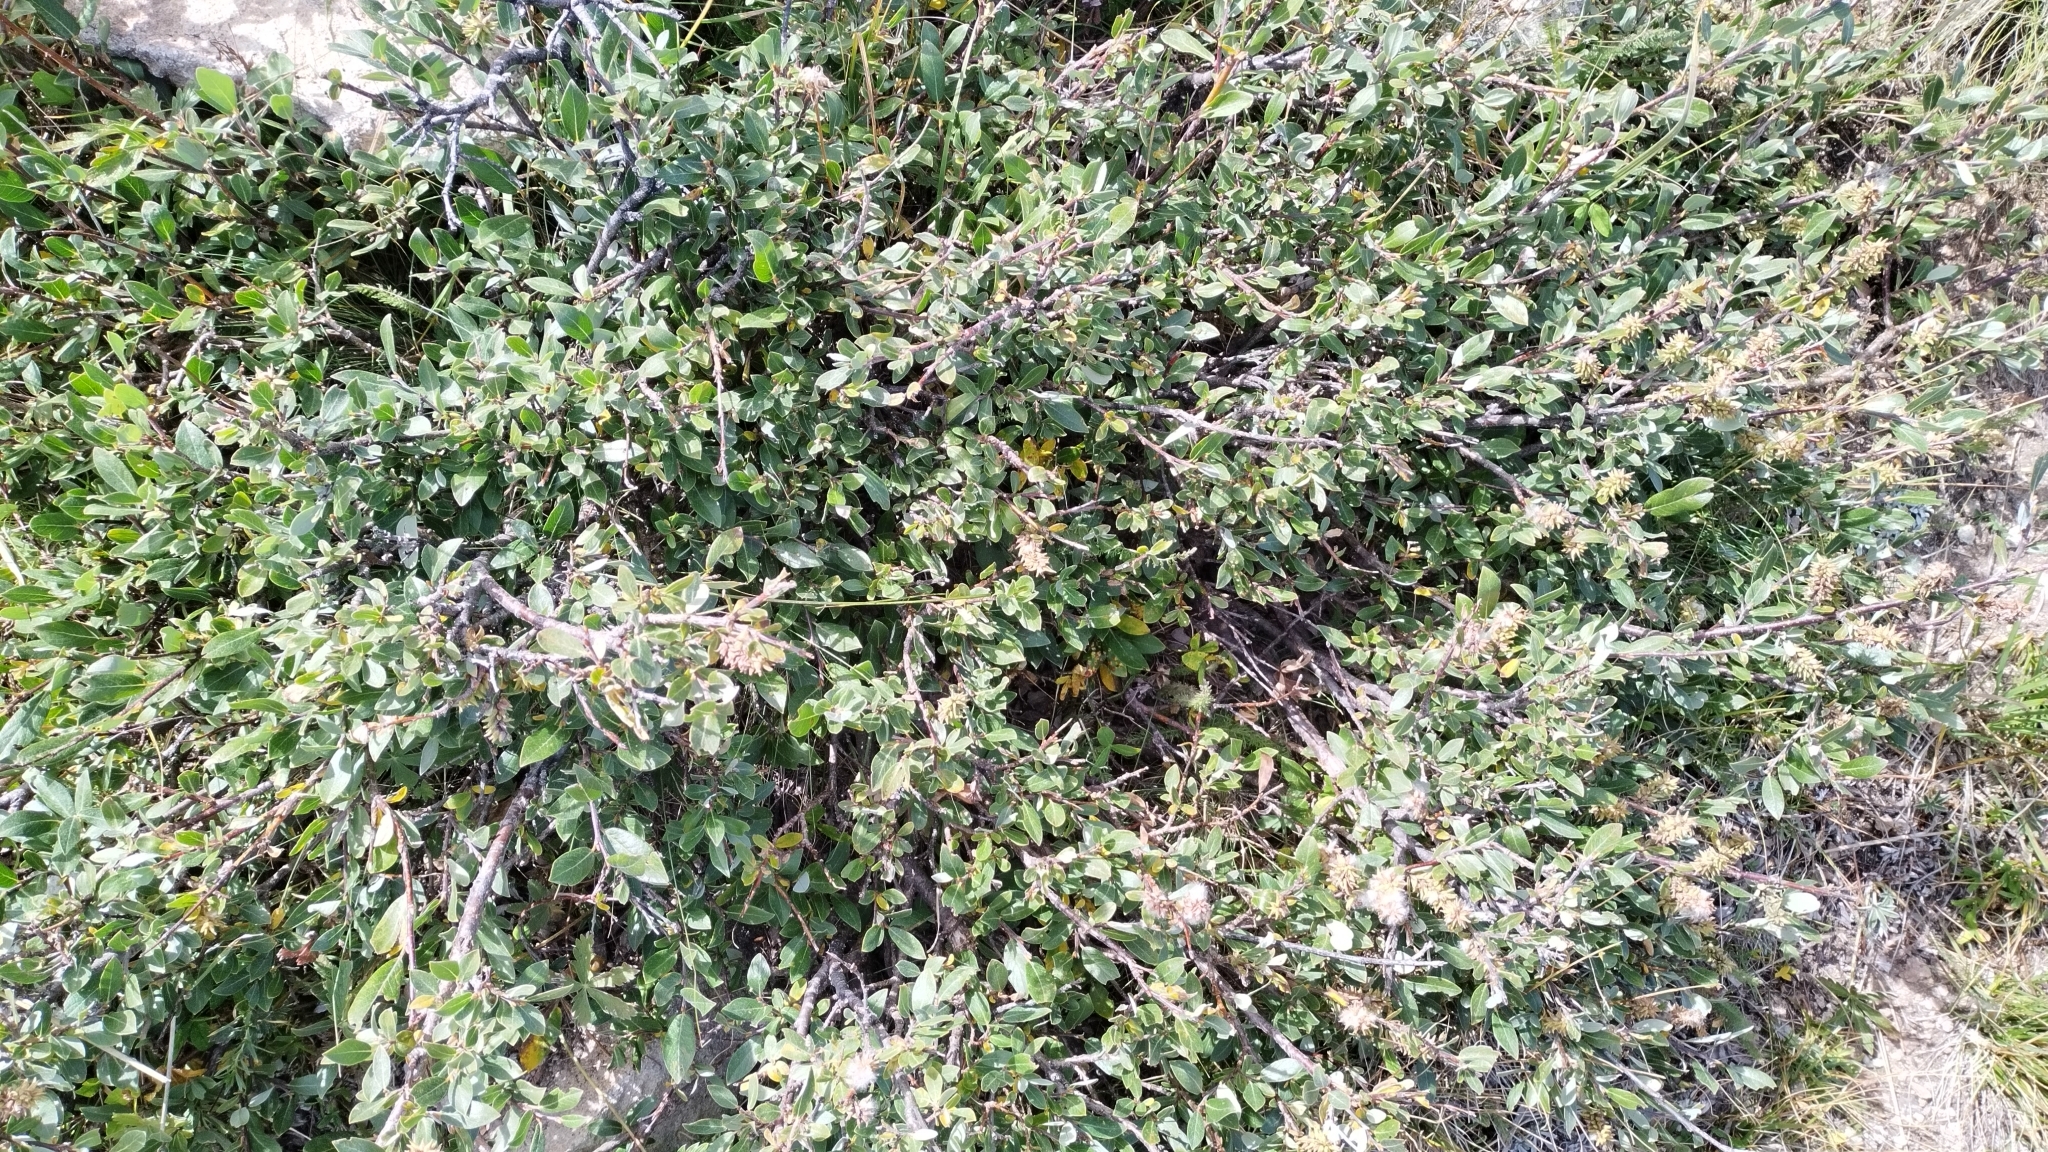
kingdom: Plantae
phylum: Tracheophyta
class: Magnoliopsida
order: Malpighiales
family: Salicaceae
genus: Salix
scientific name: Salix glauca
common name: Glaucous willow
